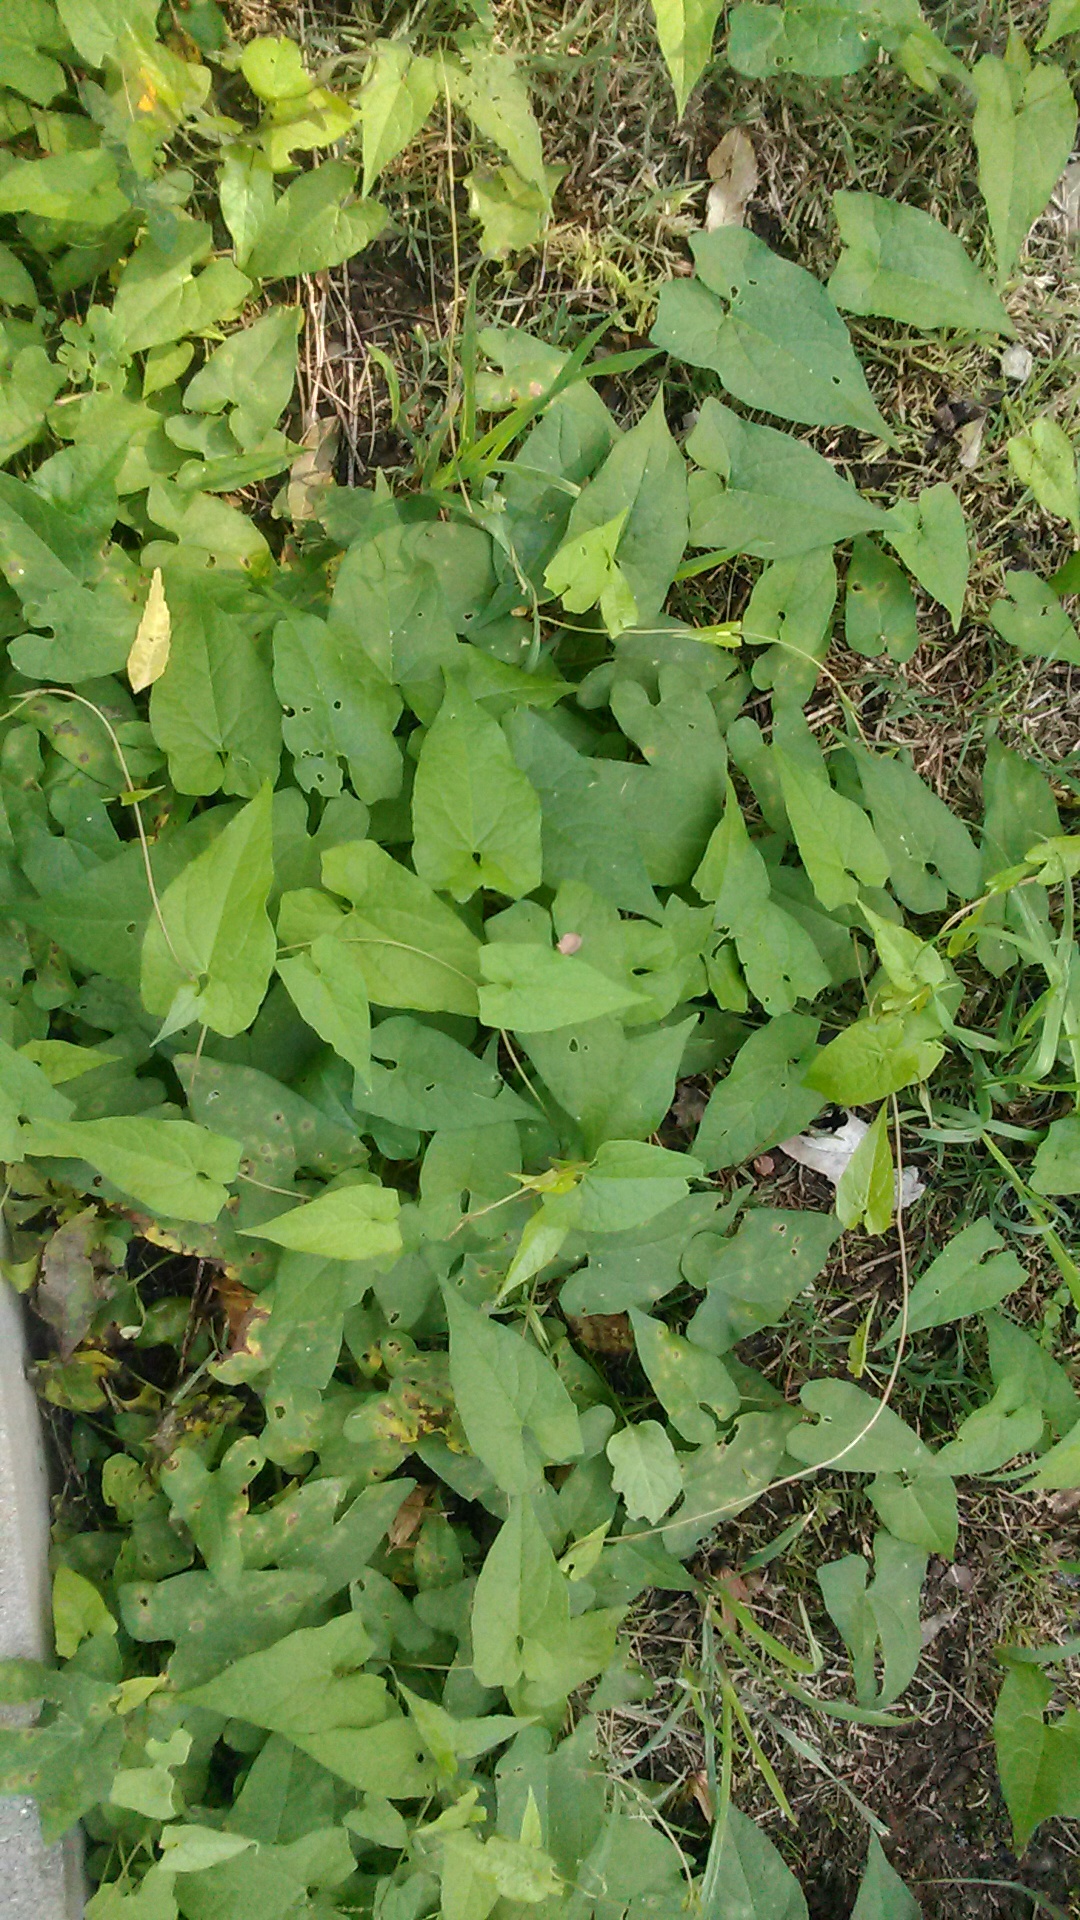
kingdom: Plantae
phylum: Tracheophyta
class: Magnoliopsida
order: Solanales
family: Convolvulaceae
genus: Calystegia
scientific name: Calystegia silvatica
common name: Large bindweed
